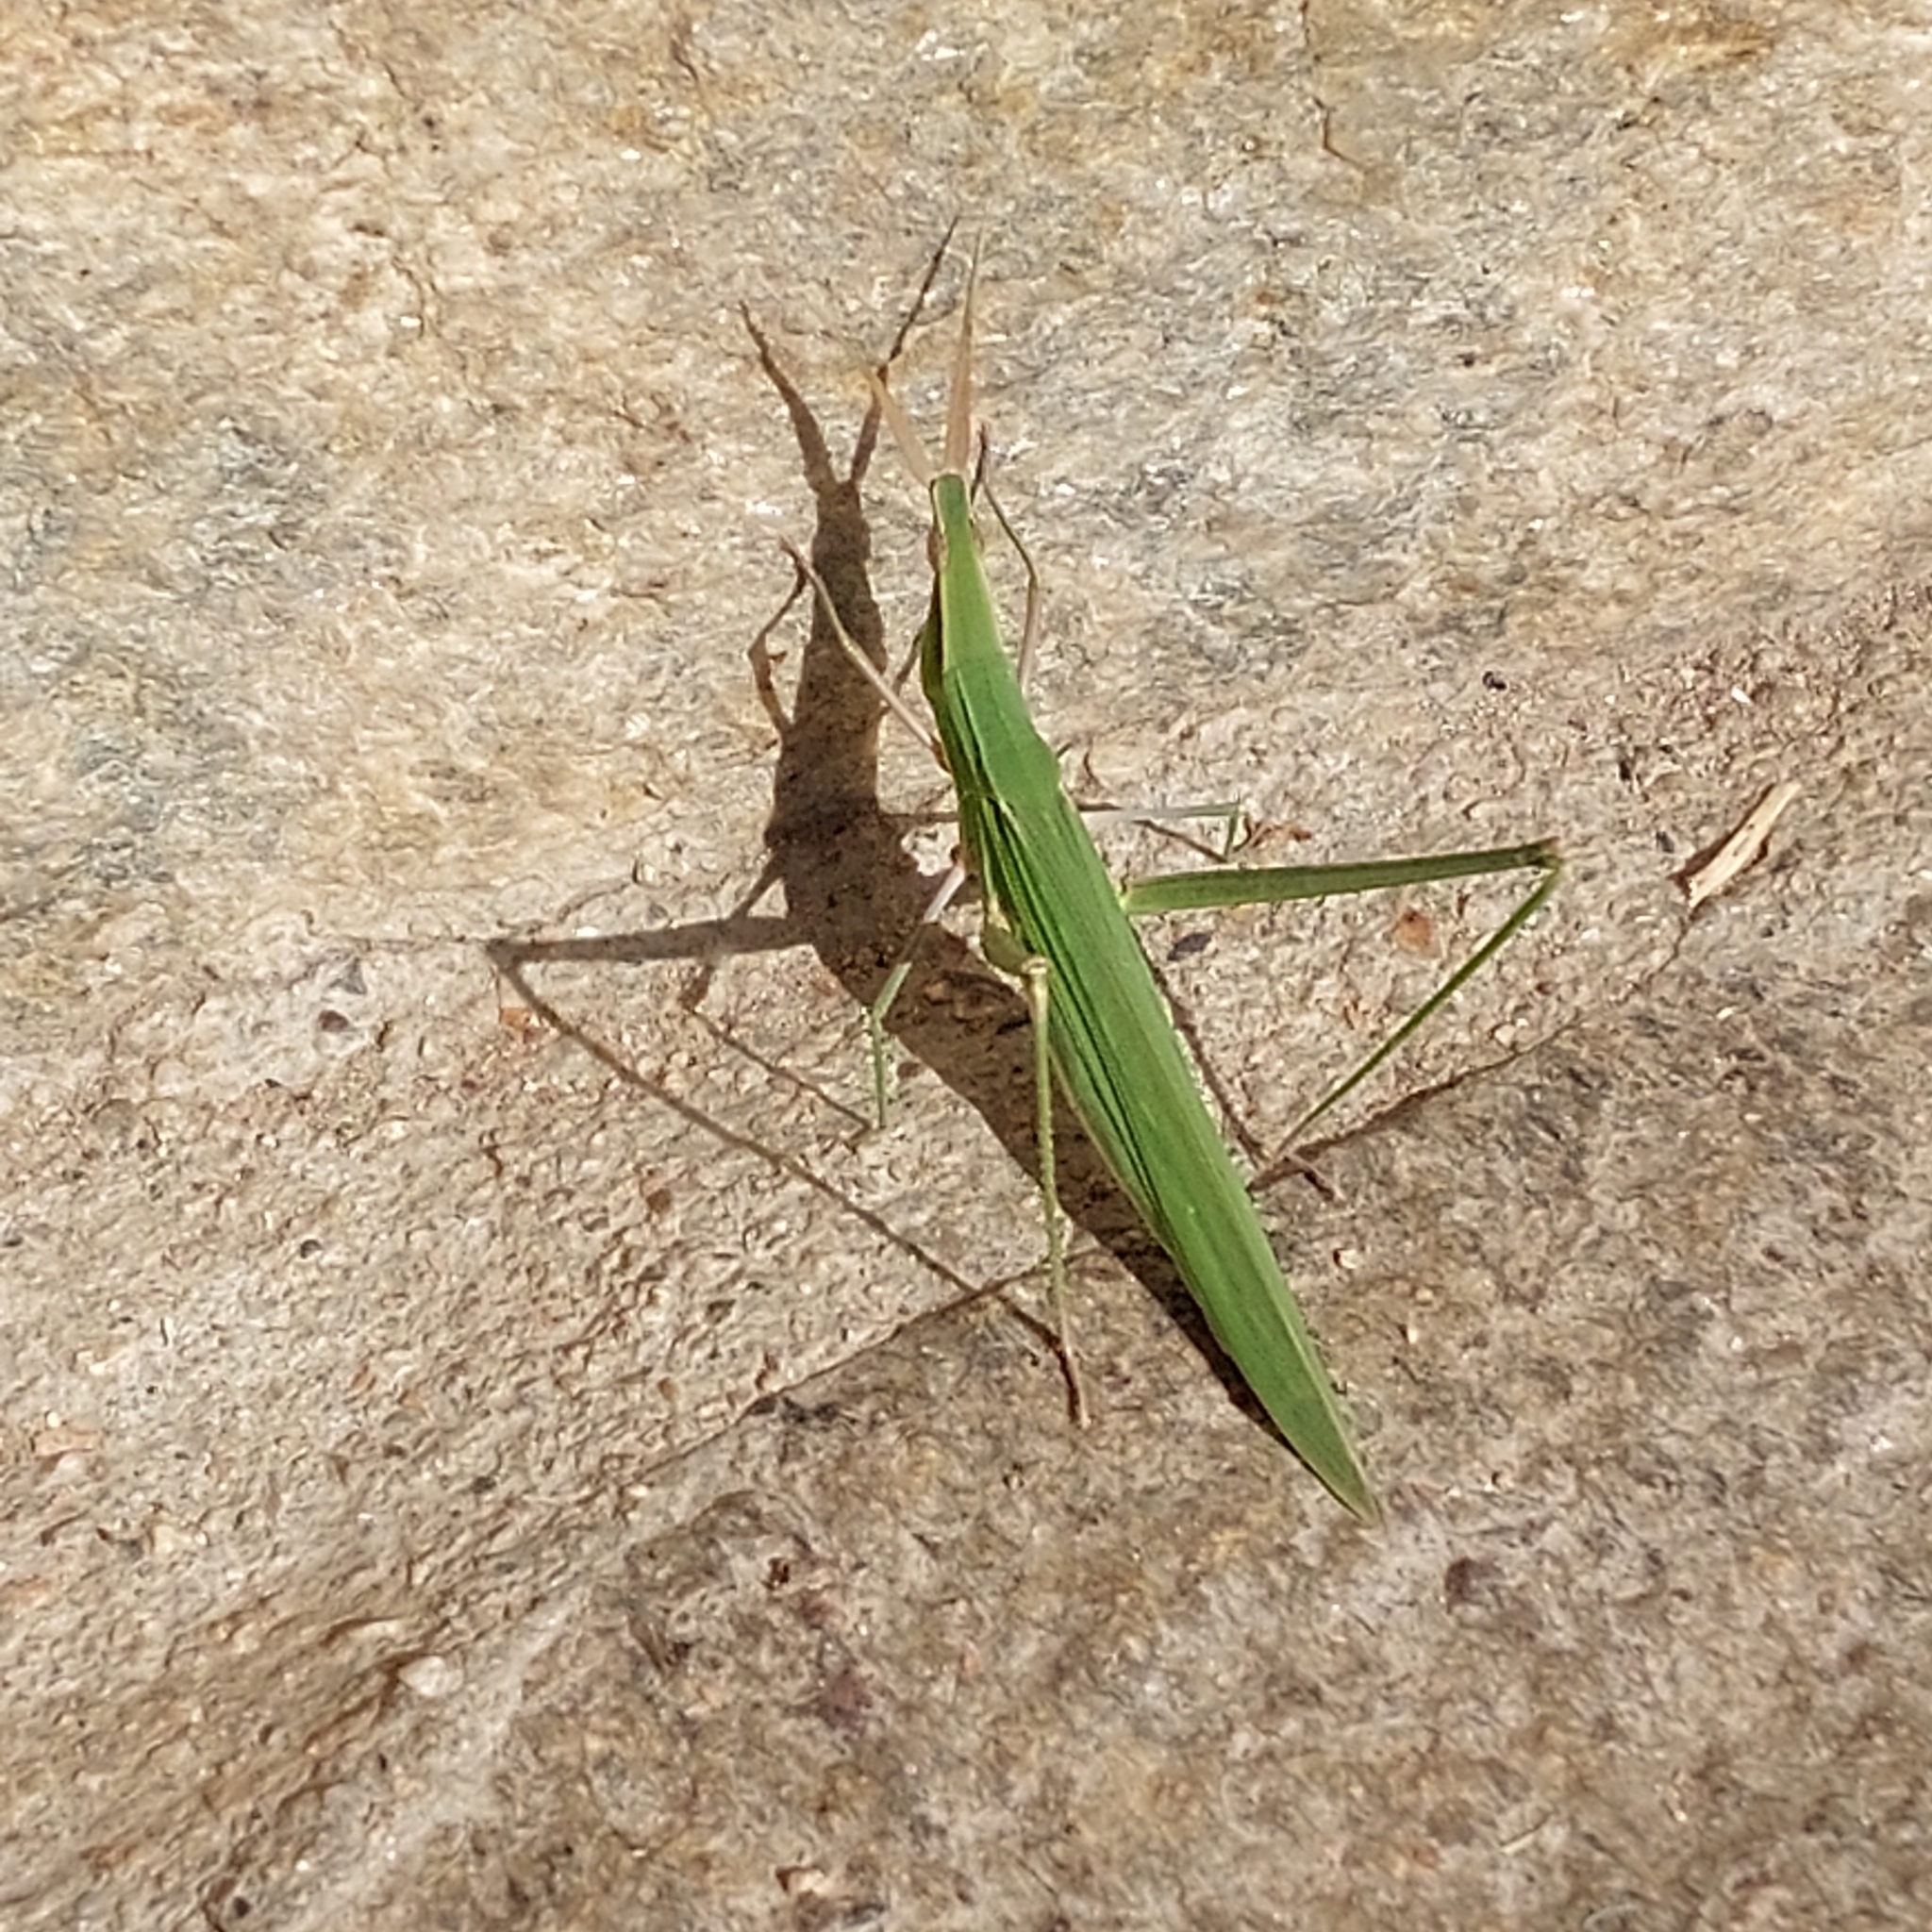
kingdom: Animalia
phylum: Arthropoda
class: Insecta
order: Orthoptera
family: Acrididae
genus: Acrida
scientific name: Acrida ungarica
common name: Common cone-headed grasshopper
